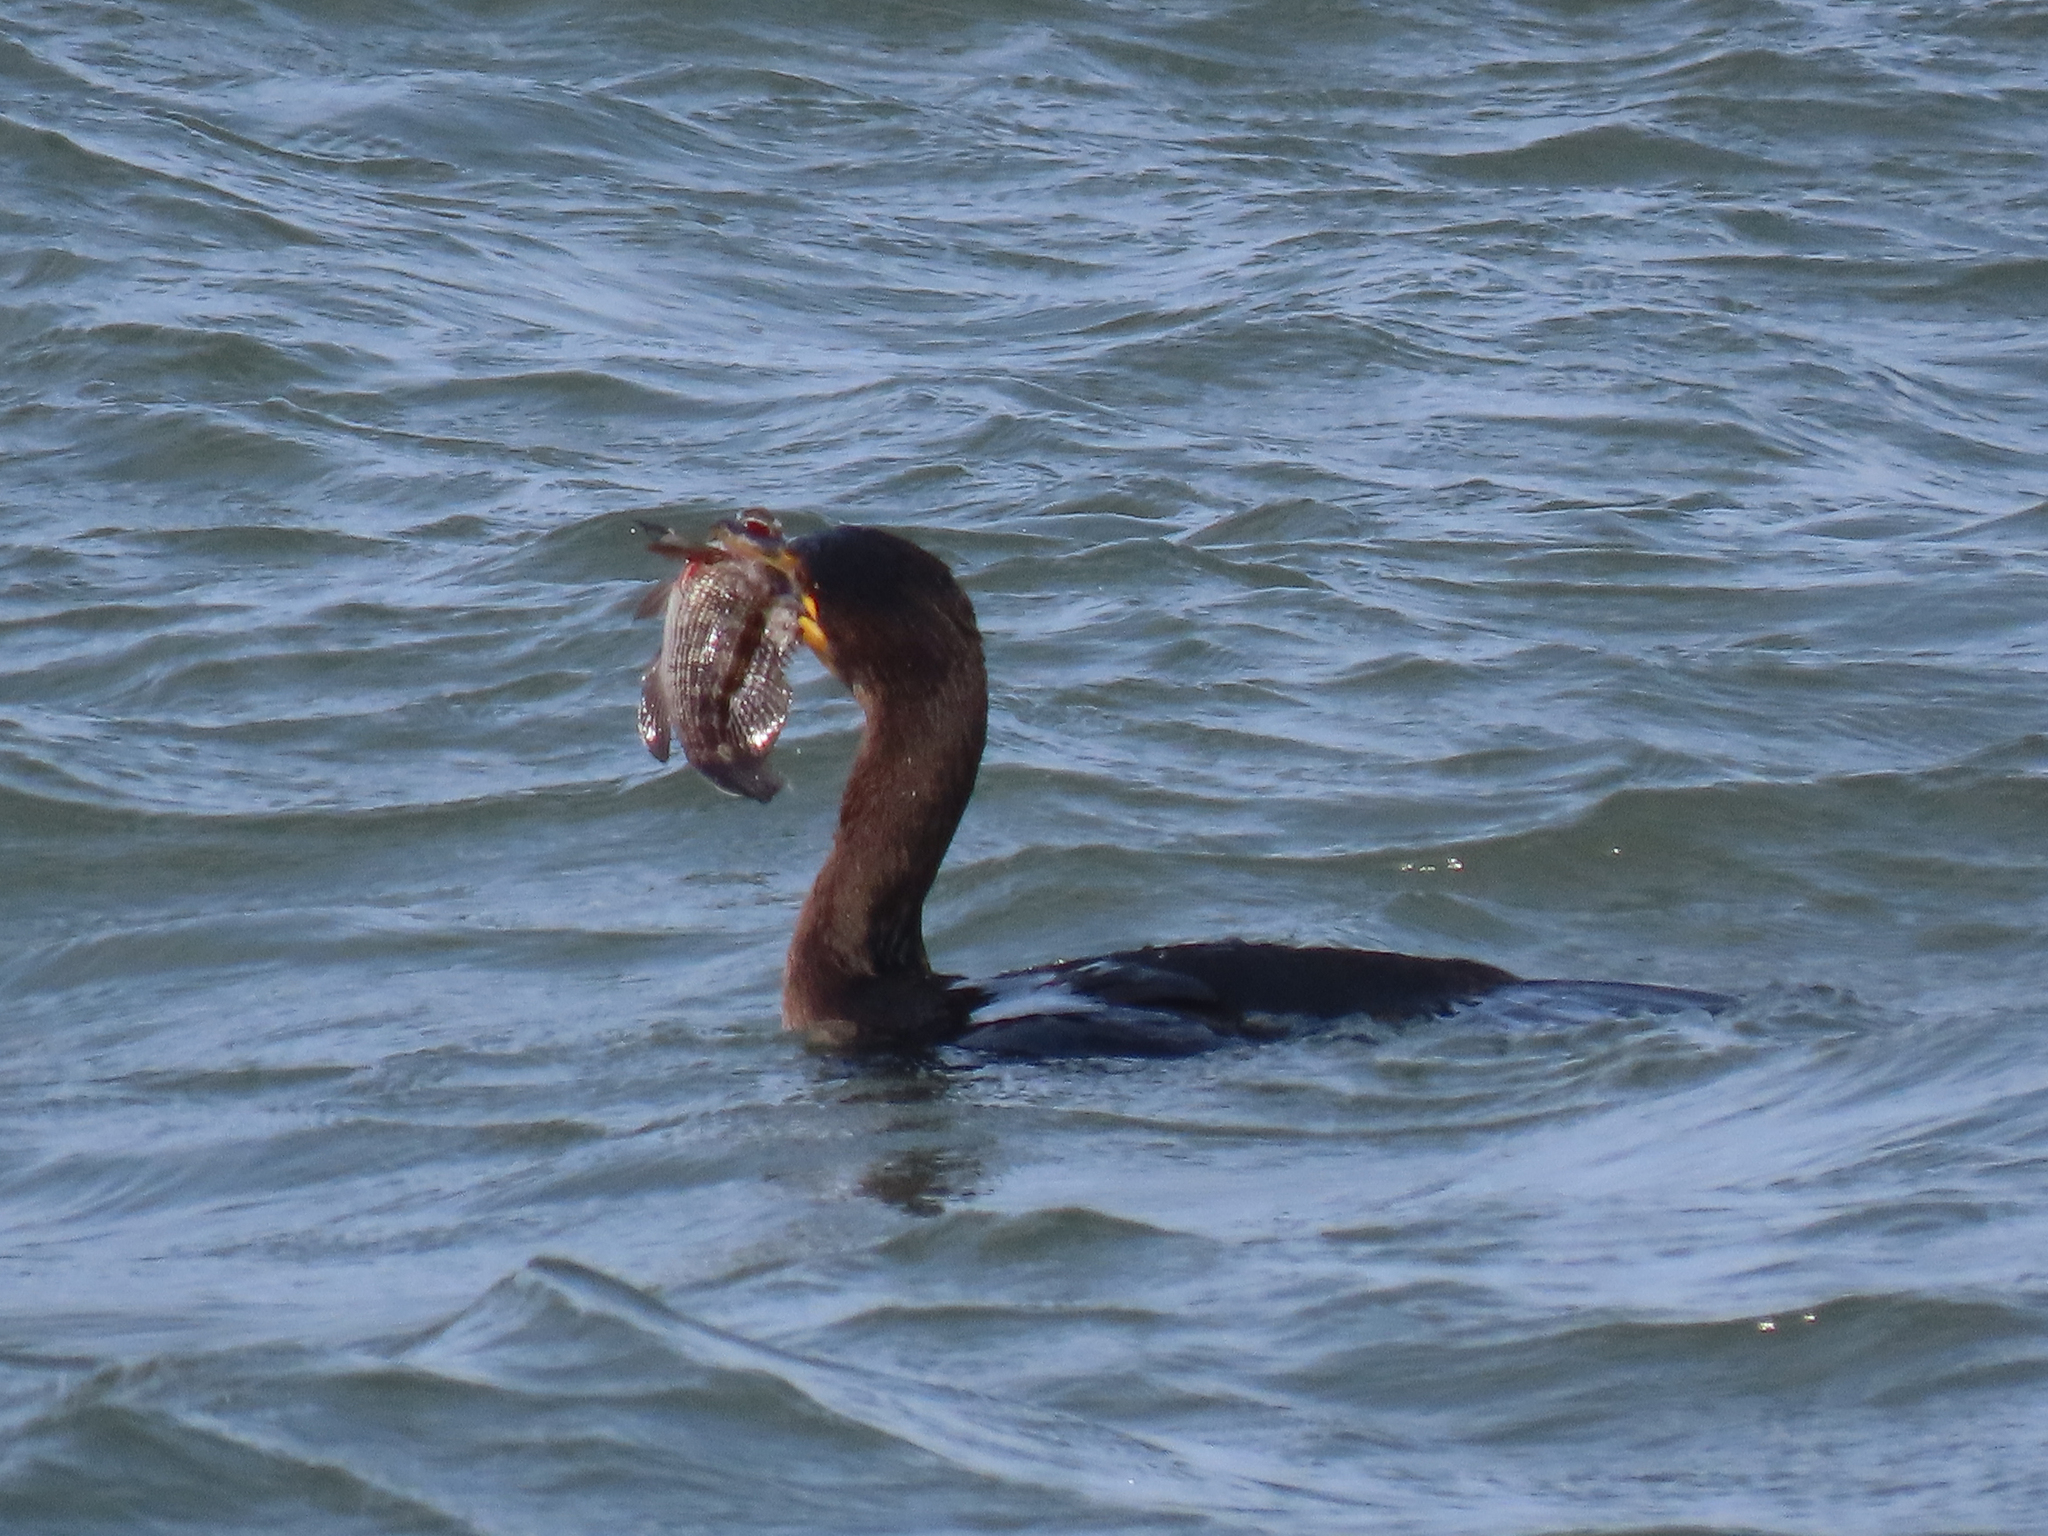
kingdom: Animalia
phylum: Chordata
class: Aves
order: Suliformes
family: Phalacrocoracidae
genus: Phalacrocorax
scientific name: Phalacrocorax auritus
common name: Double-crested cormorant
